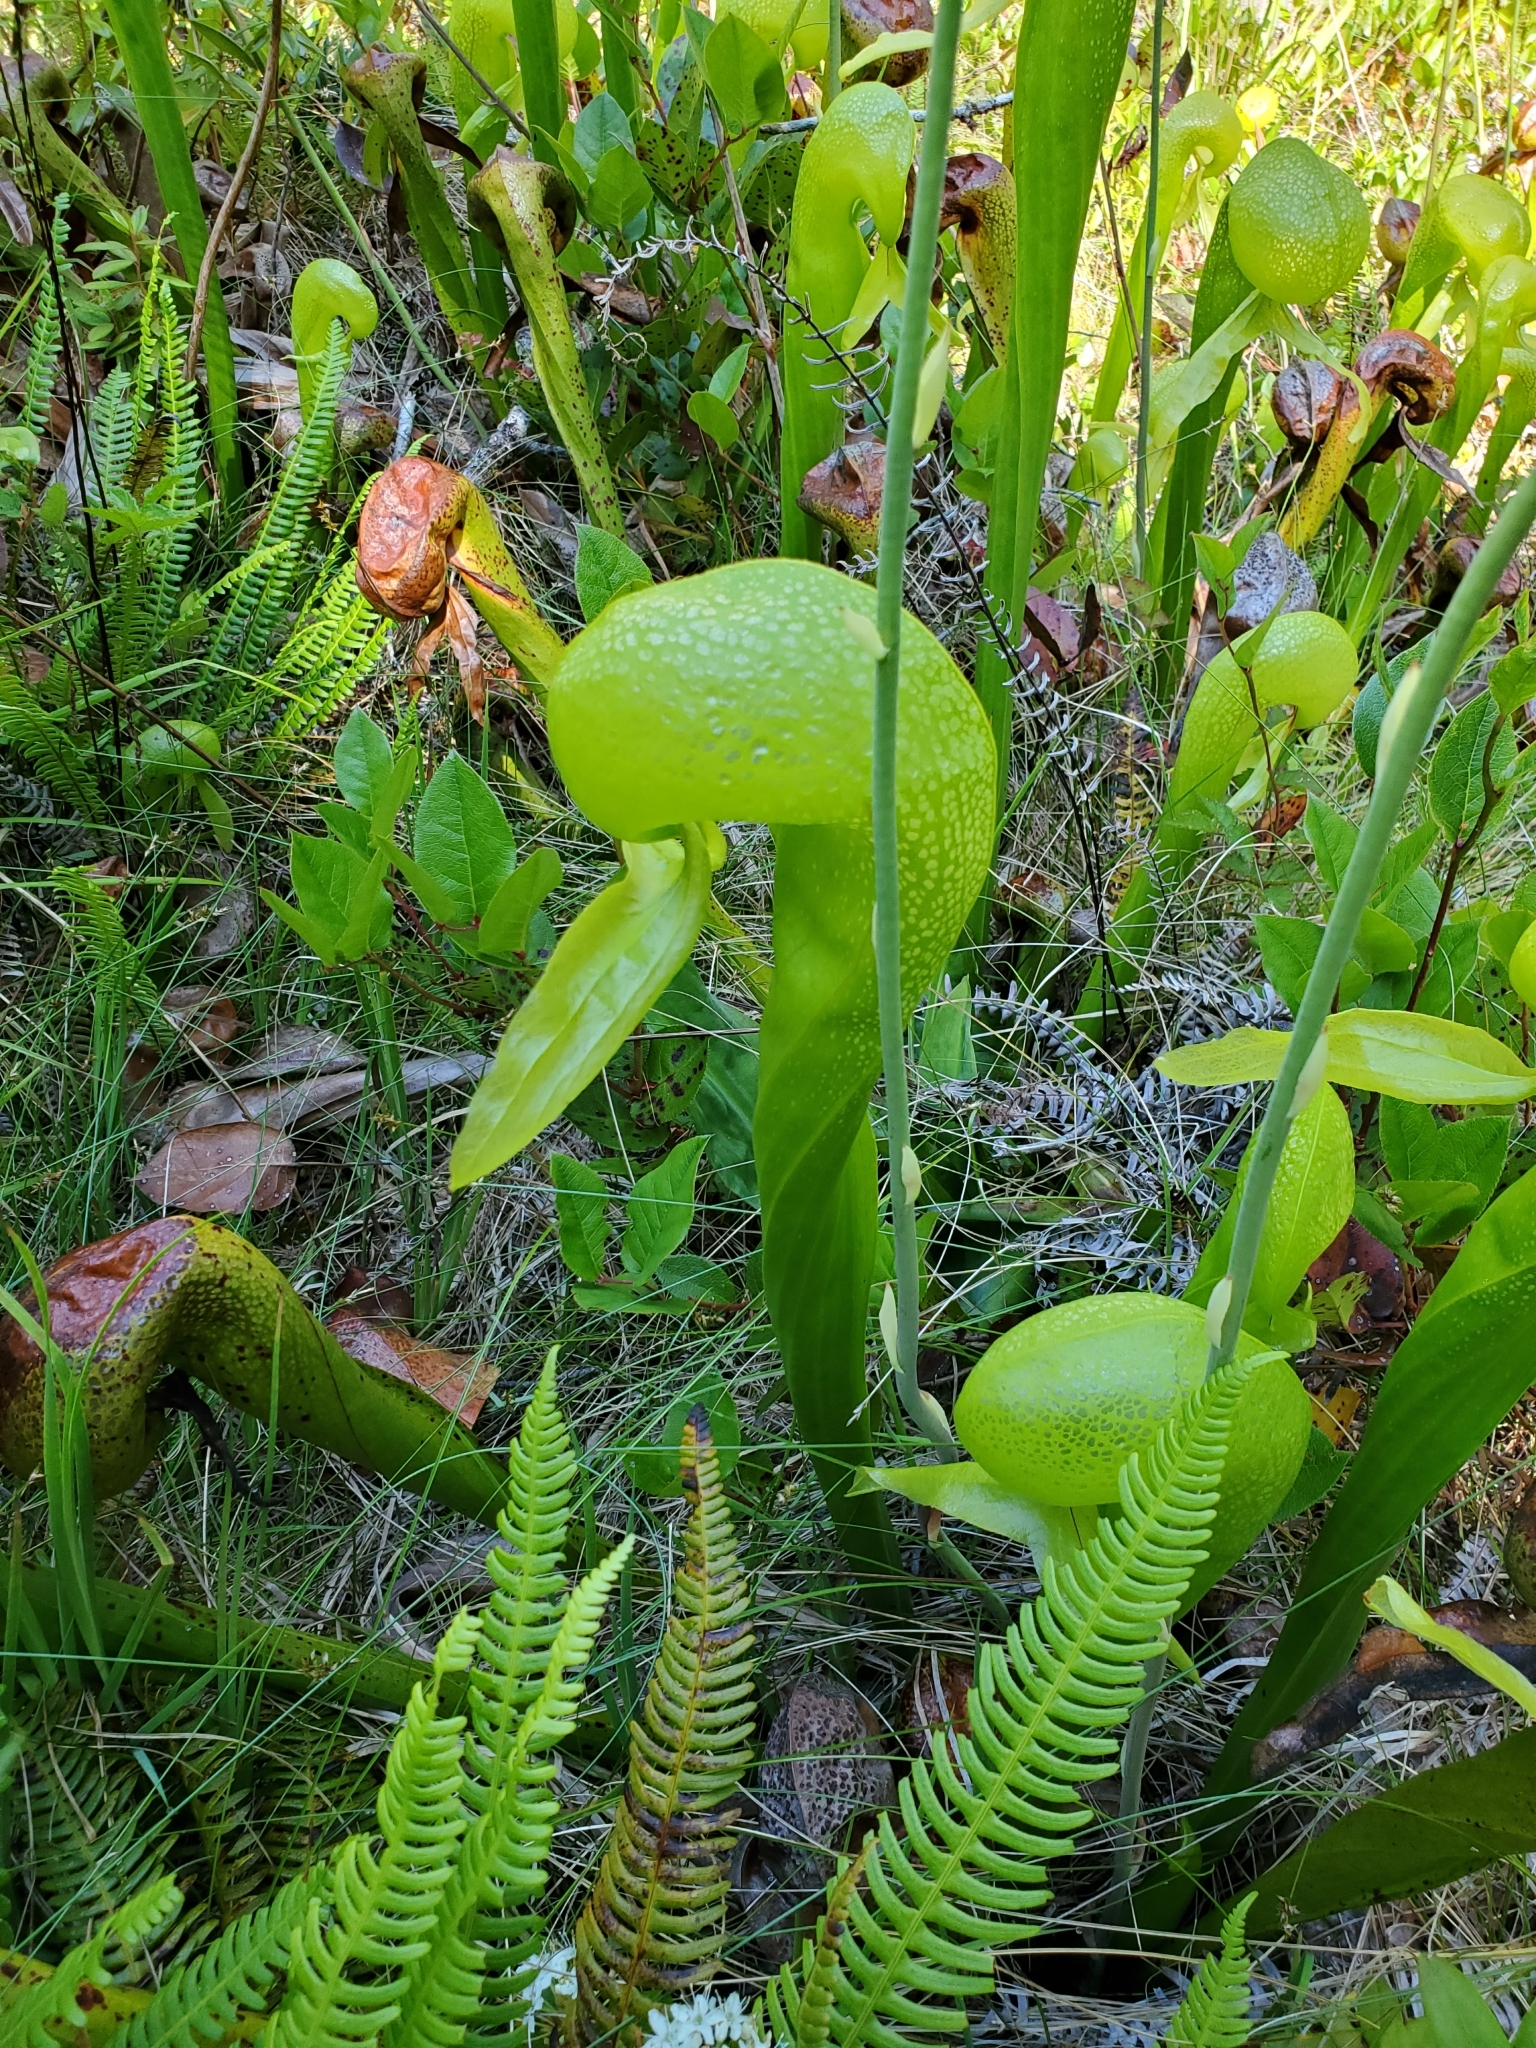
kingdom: Plantae
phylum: Tracheophyta
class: Magnoliopsida
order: Ericales
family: Sarraceniaceae
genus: Darlingtonia
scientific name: Darlingtonia californica
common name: California pitcher plant
